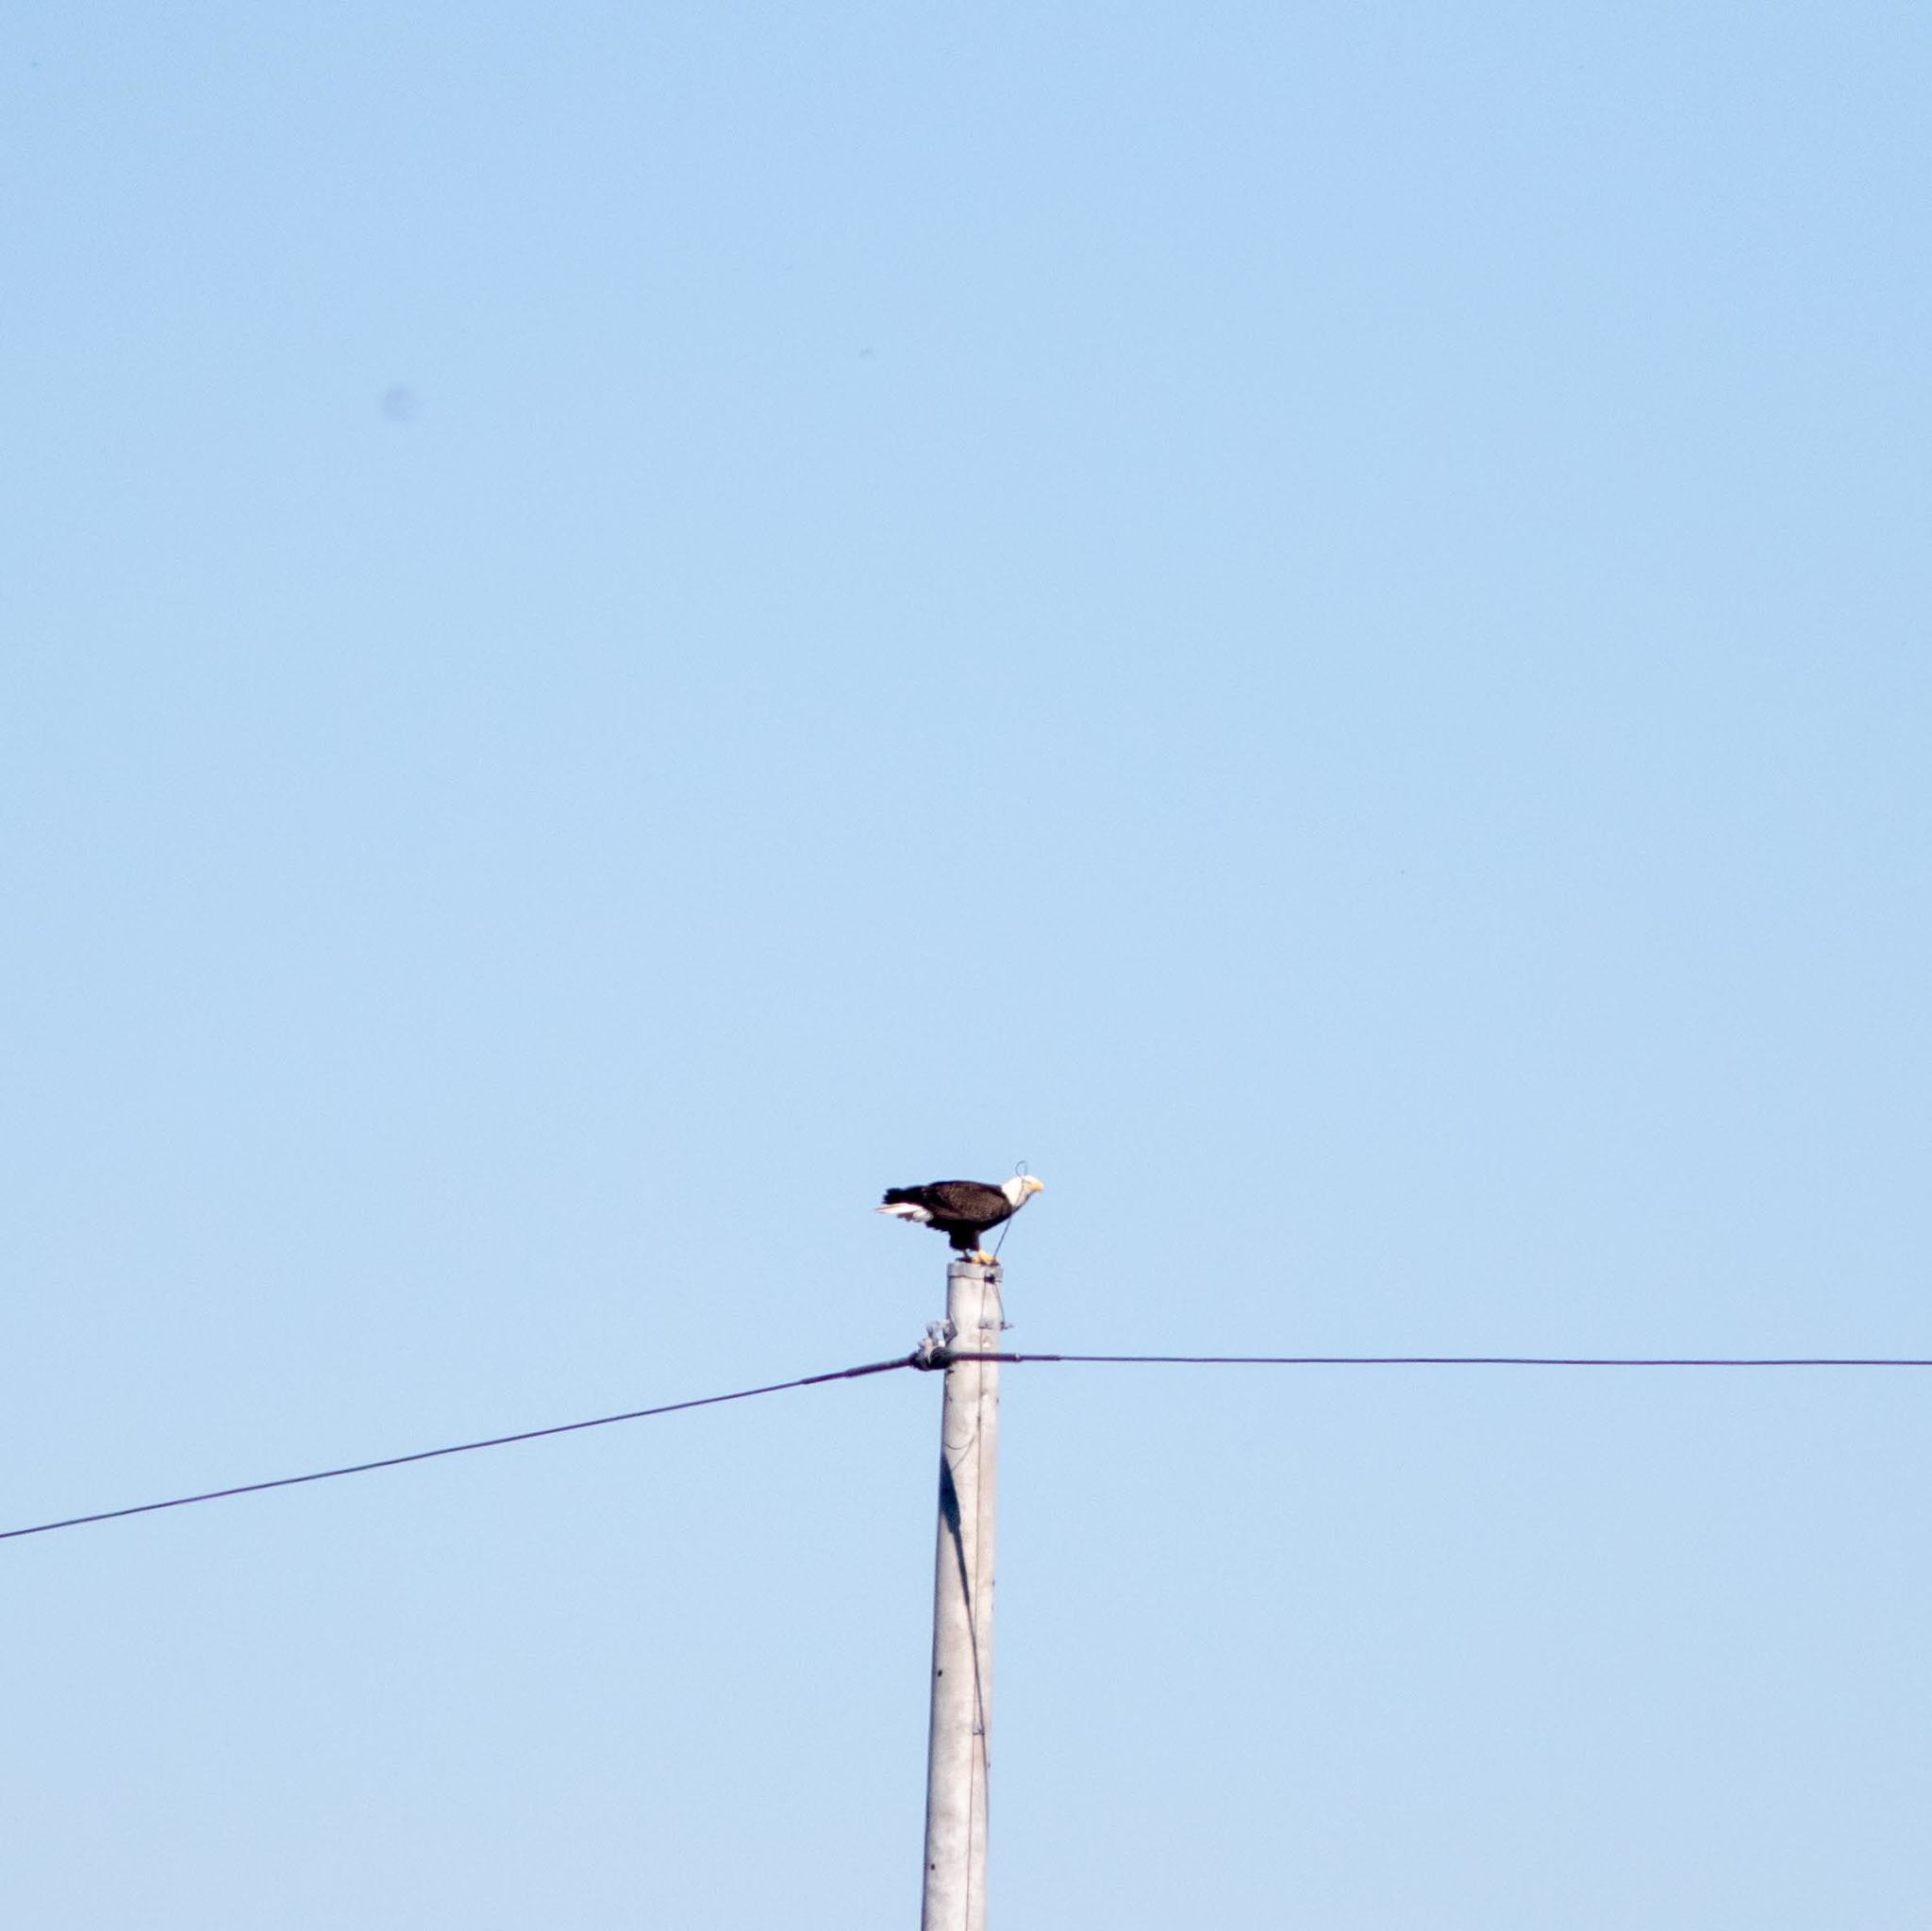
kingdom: Animalia
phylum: Chordata
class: Aves
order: Accipitriformes
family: Accipitridae
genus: Haliaeetus
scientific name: Haliaeetus leucocephalus
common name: Bald eagle
